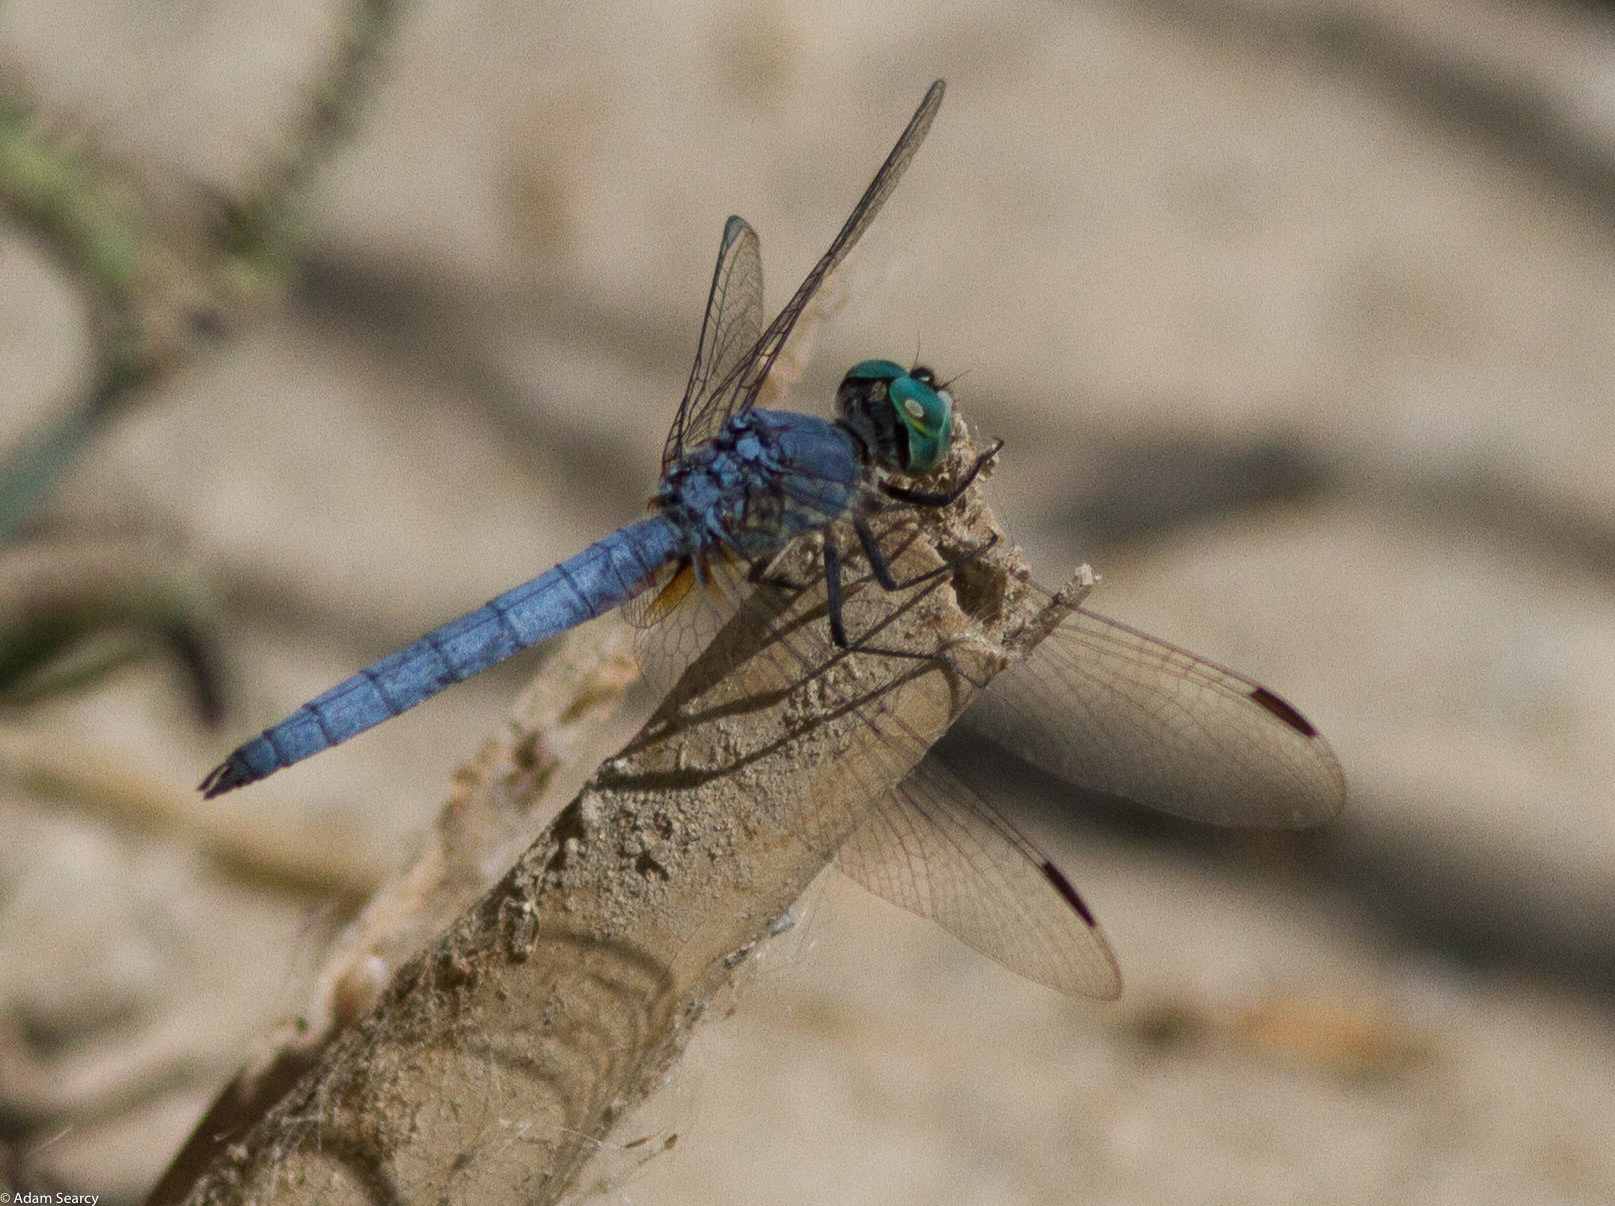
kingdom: Animalia
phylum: Arthropoda
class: Insecta
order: Odonata
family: Libellulidae
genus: Pachydiplax
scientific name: Pachydiplax longipennis
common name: Blue dasher
